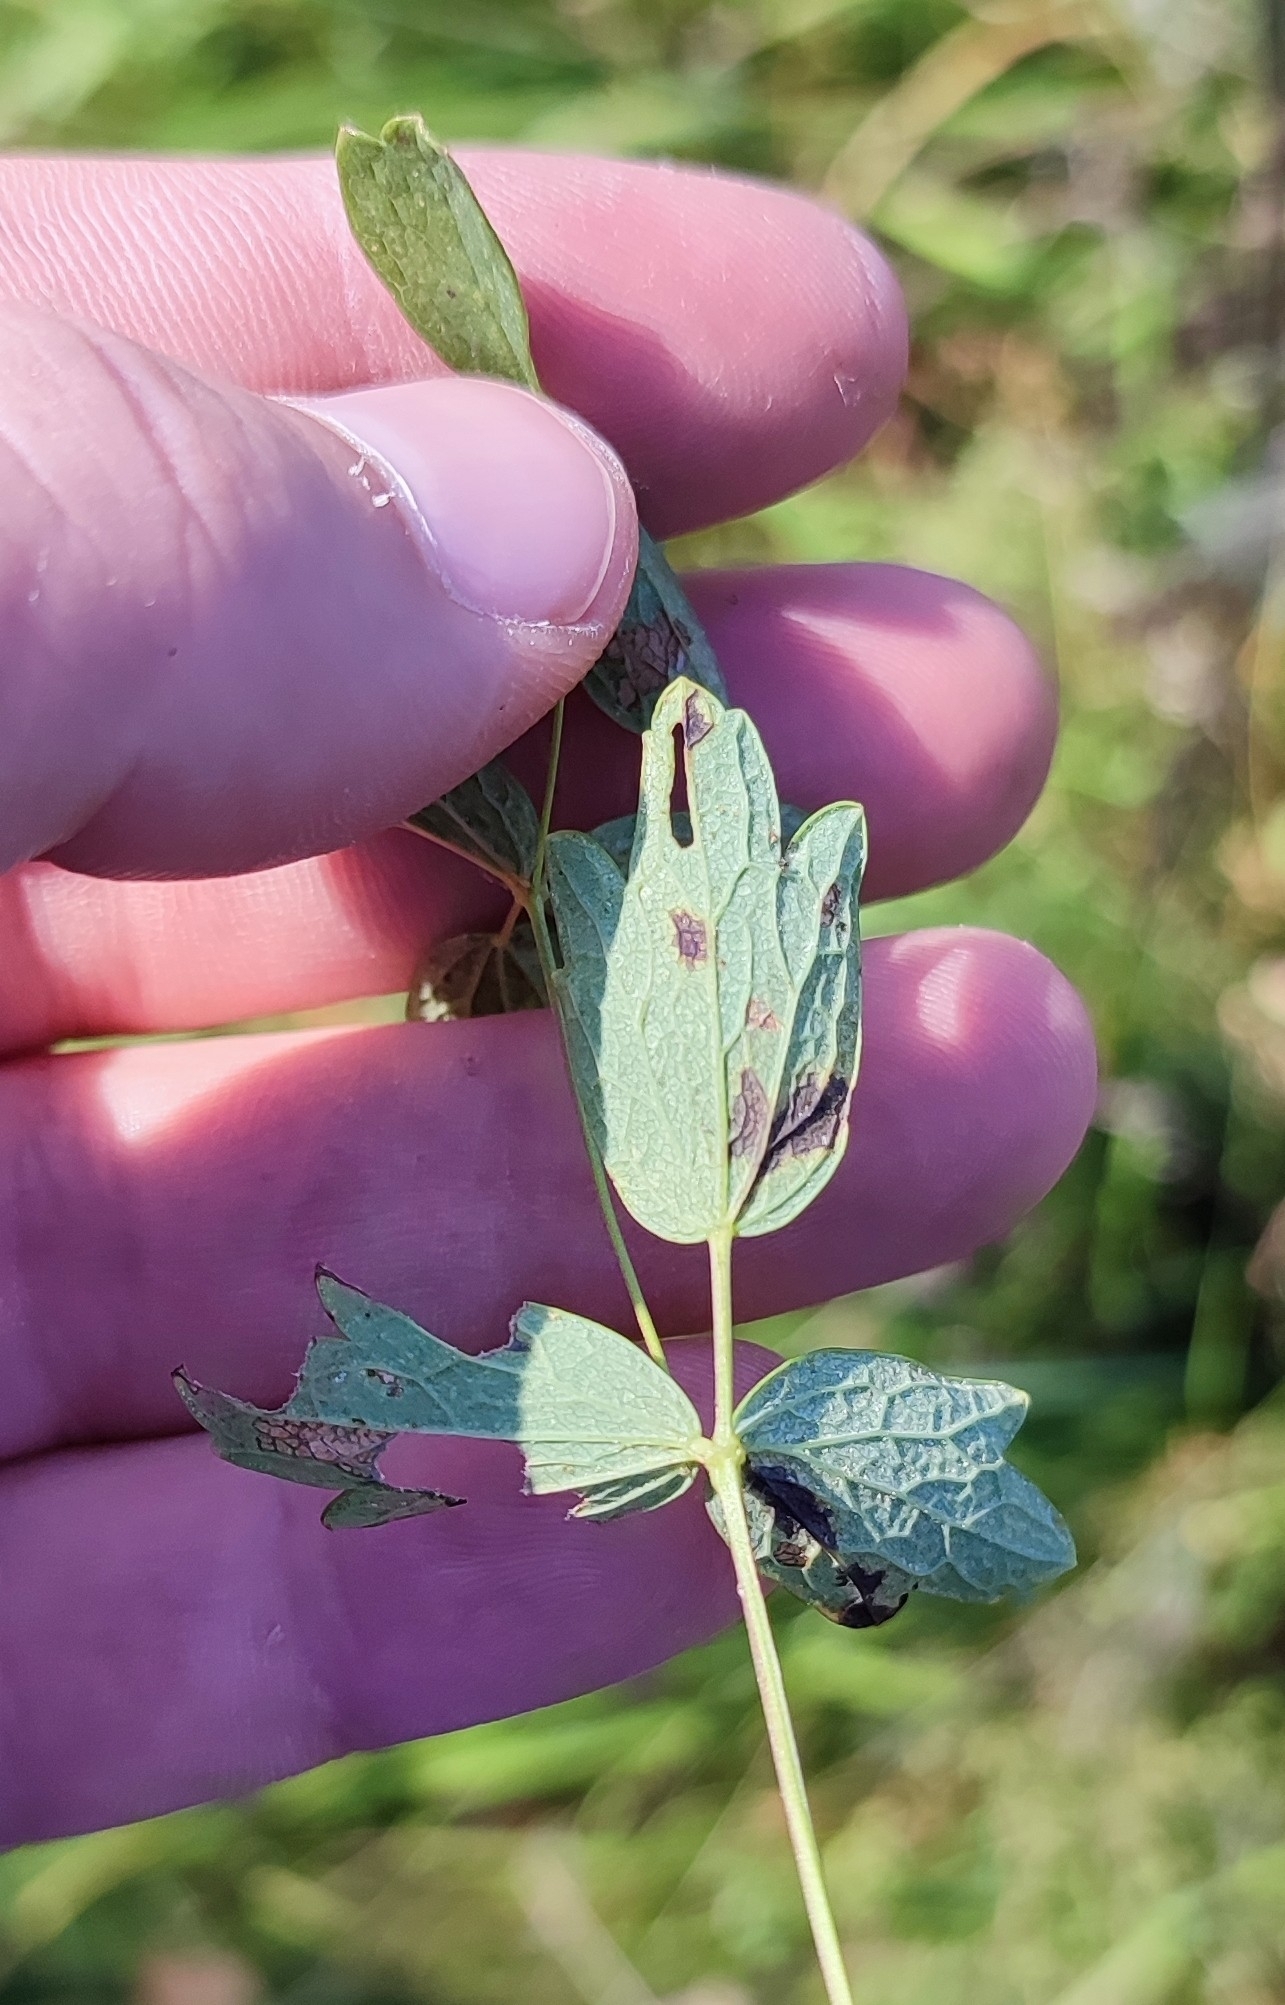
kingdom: Plantae
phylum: Tracheophyta
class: Magnoliopsida
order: Ranunculales
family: Ranunculaceae
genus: Thalictrum
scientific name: Thalictrum simplex
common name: Small meadow-rue
